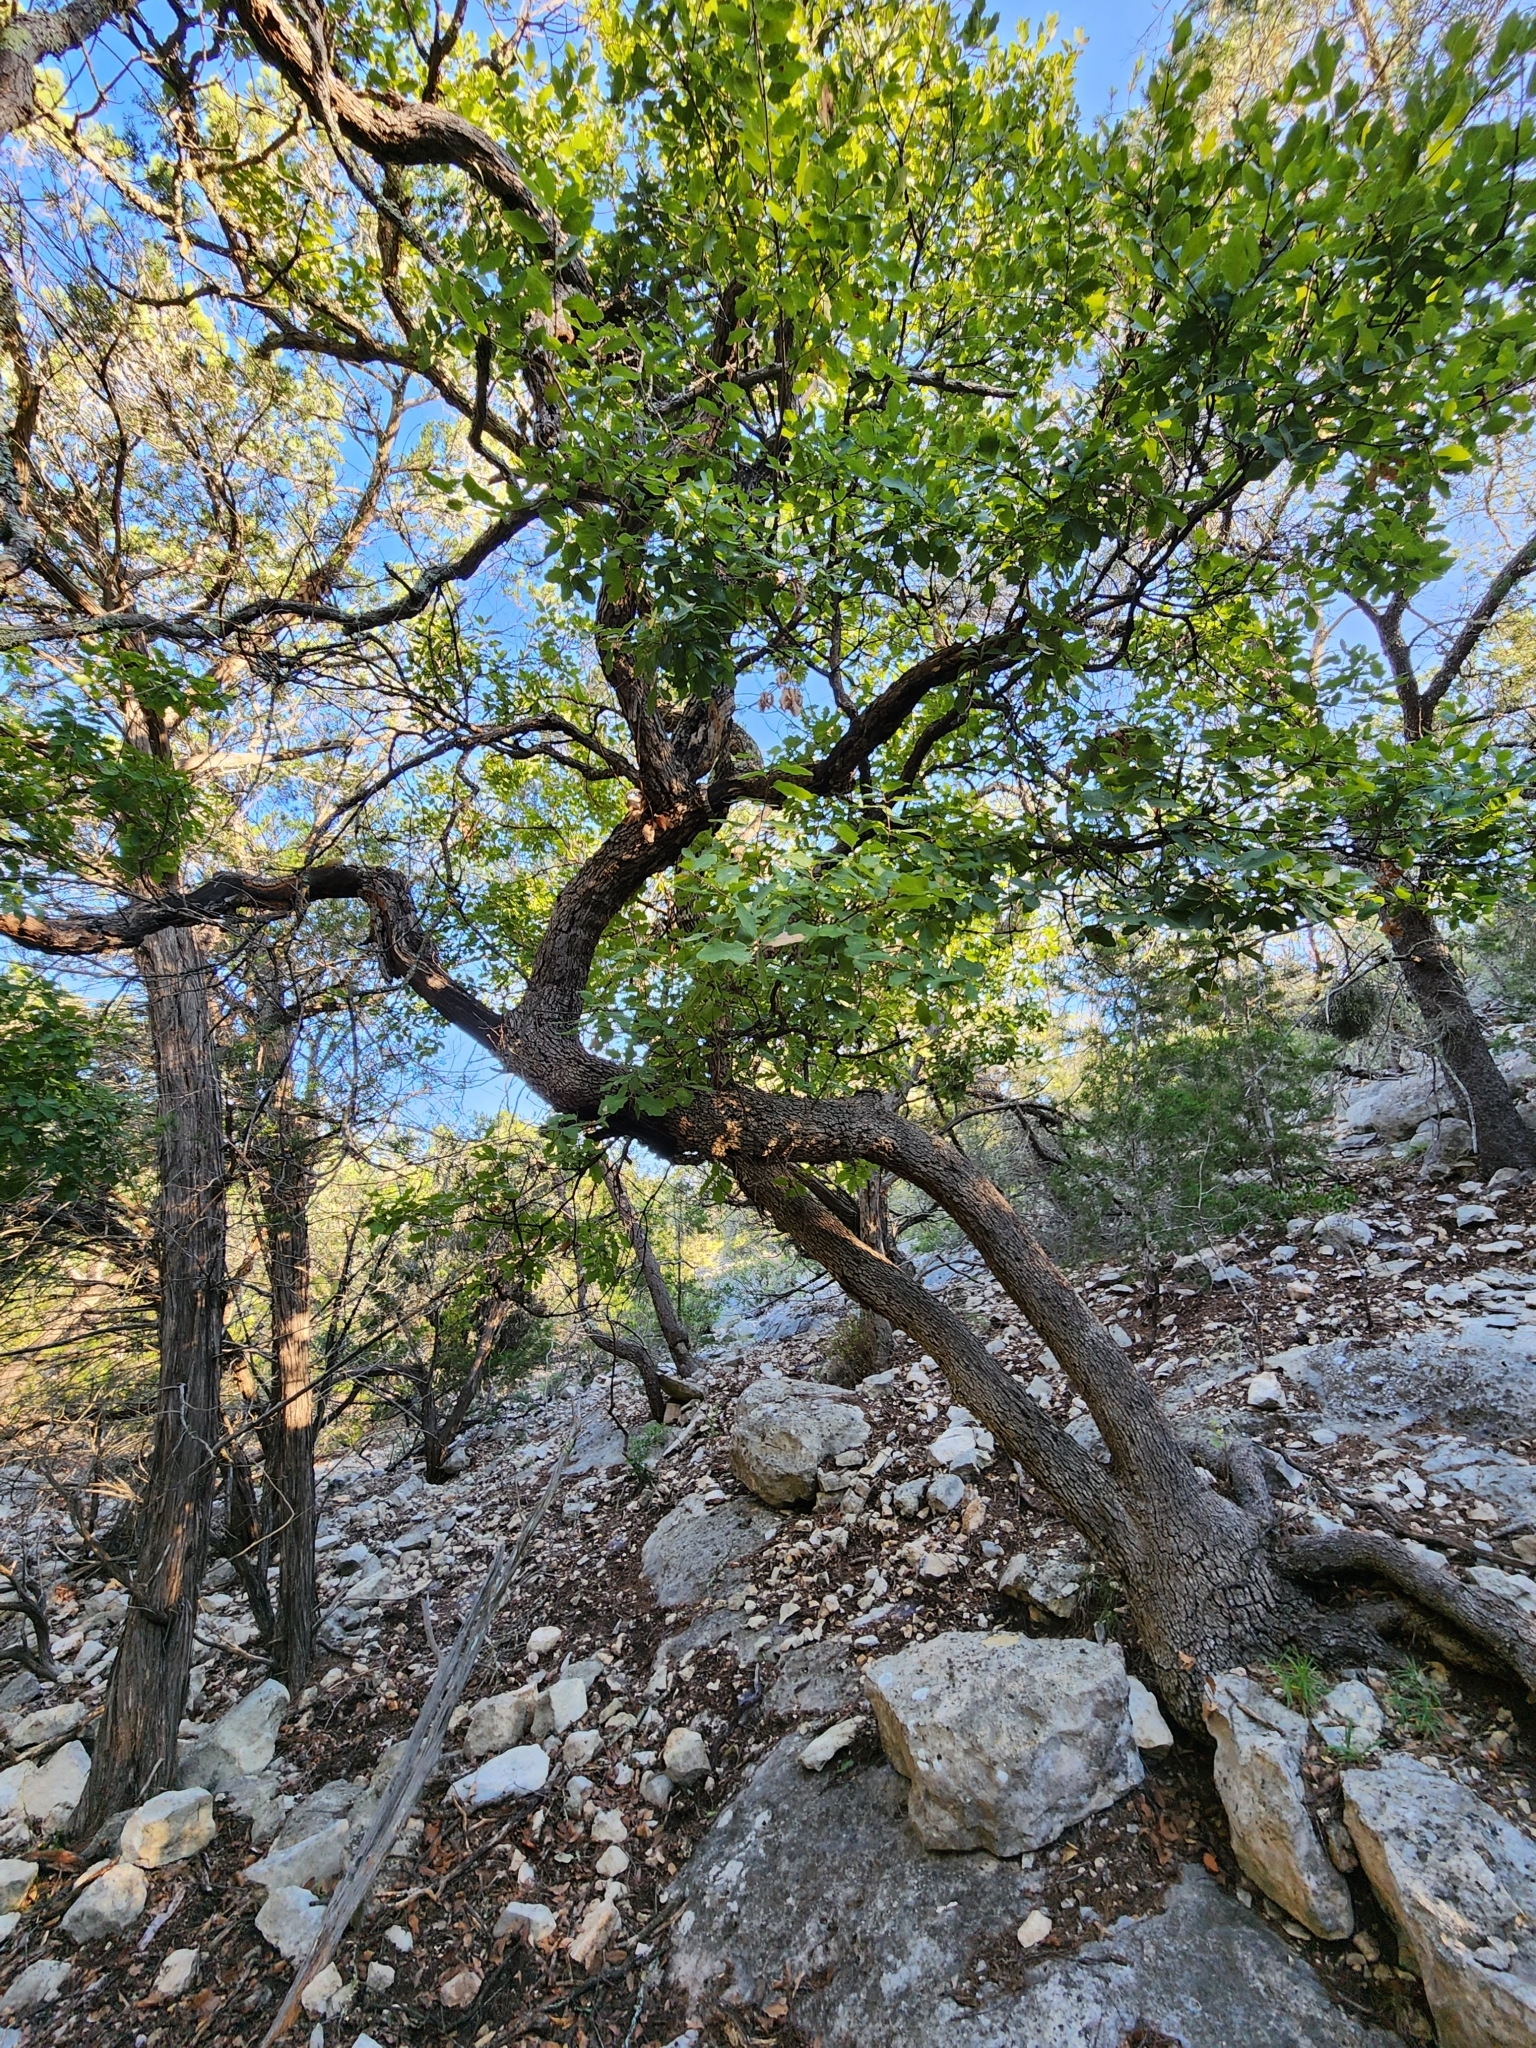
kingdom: Plantae
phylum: Tracheophyta
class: Magnoliopsida
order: Fagales
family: Fagaceae
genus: Quercus
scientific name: Quercus laceyi
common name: Lacey oak
